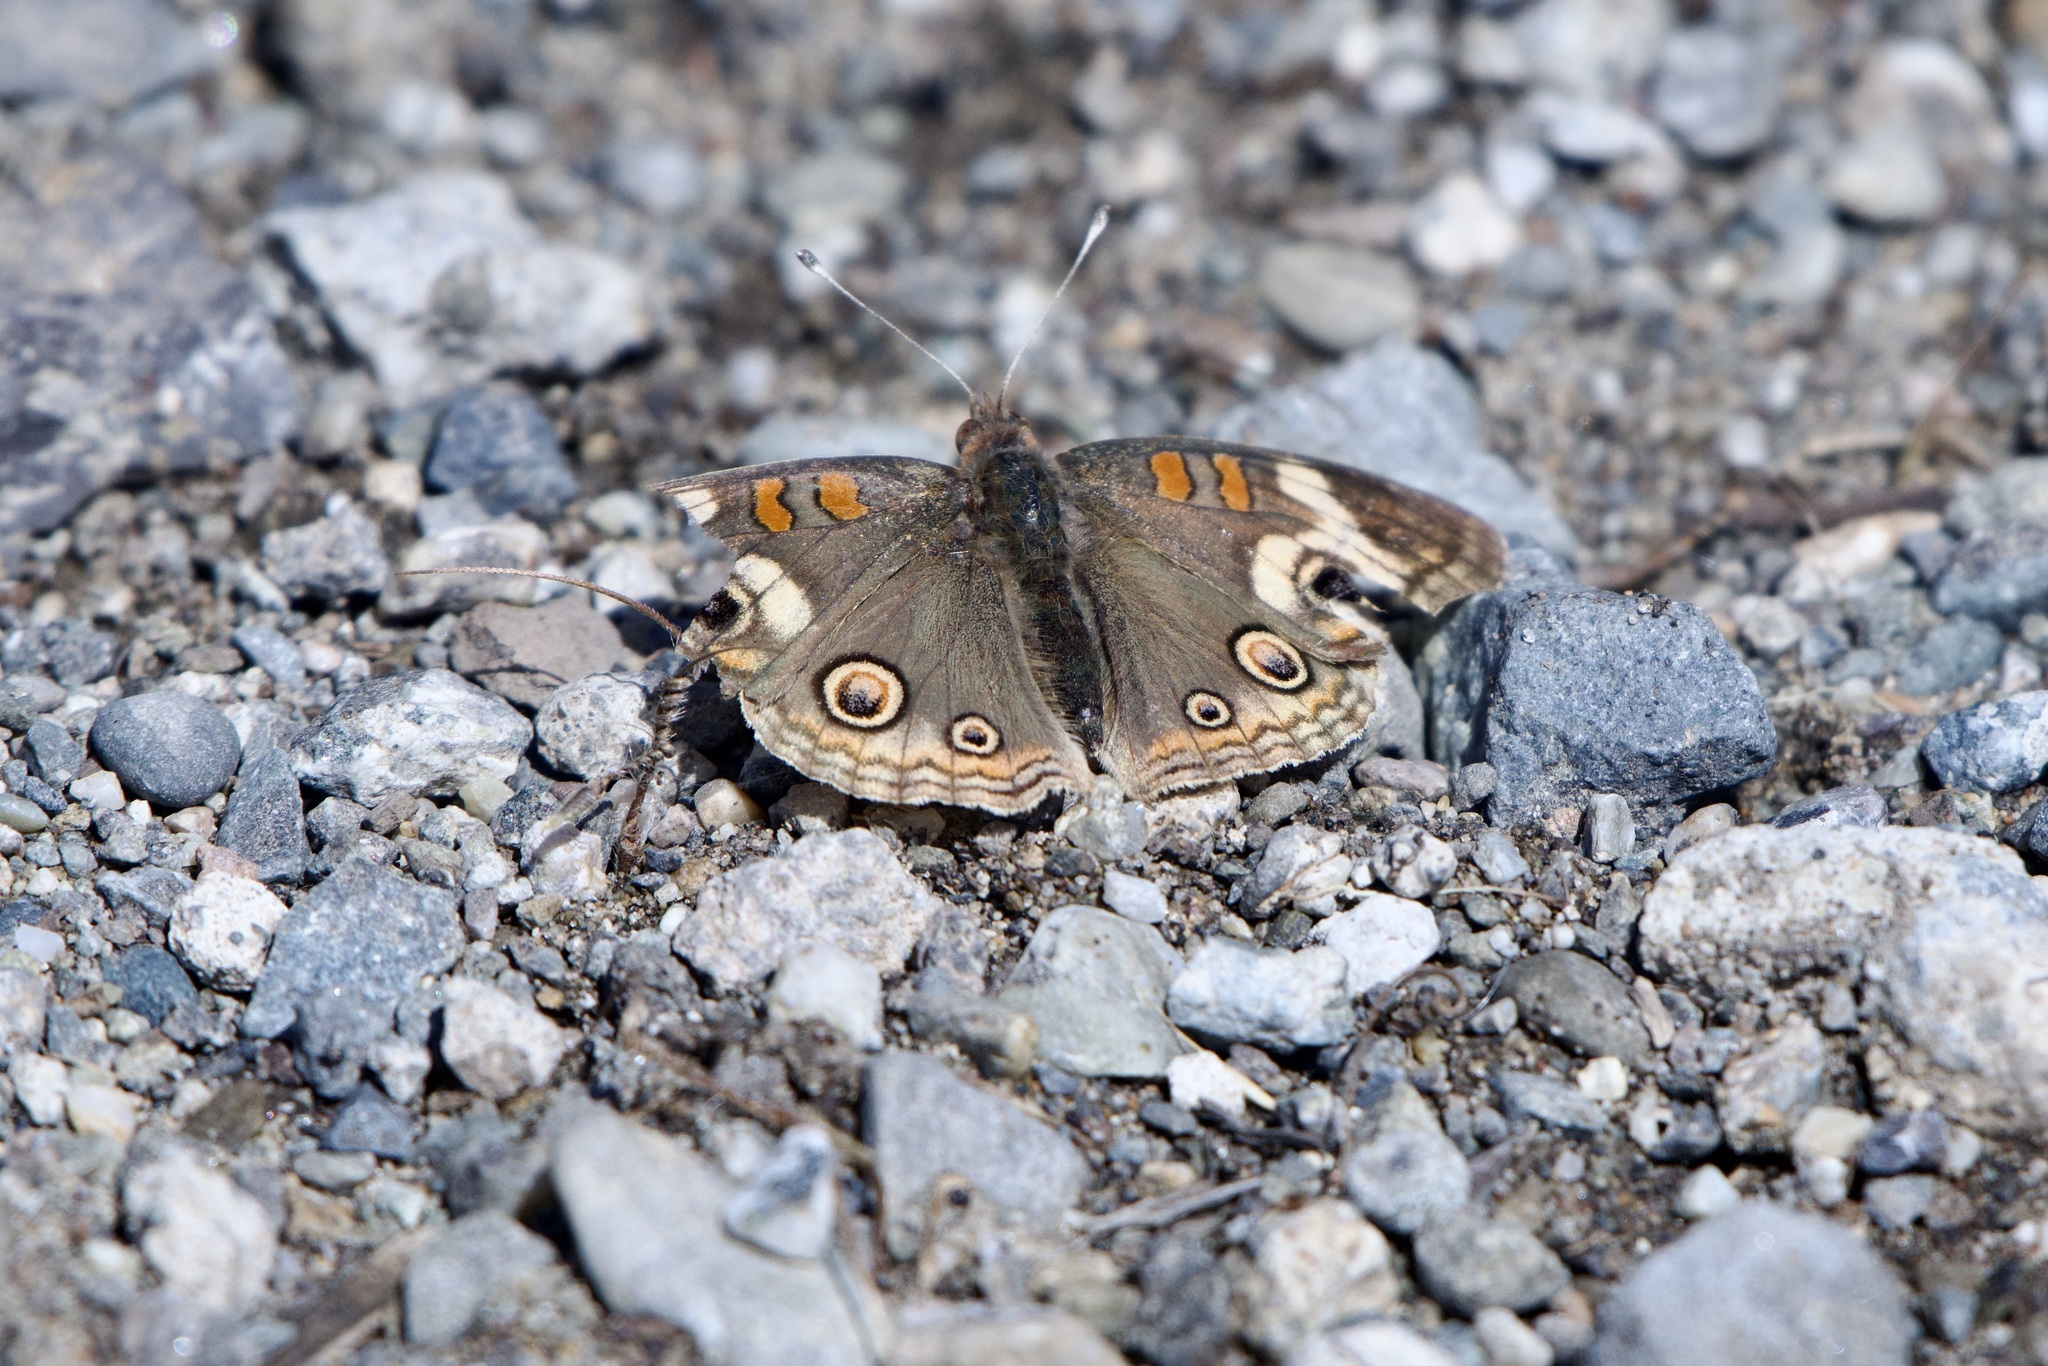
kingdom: Animalia
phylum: Arthropoda
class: Insecta
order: Lepidoptera
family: Nymphalidae
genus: Junonia
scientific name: Junonia grisea
